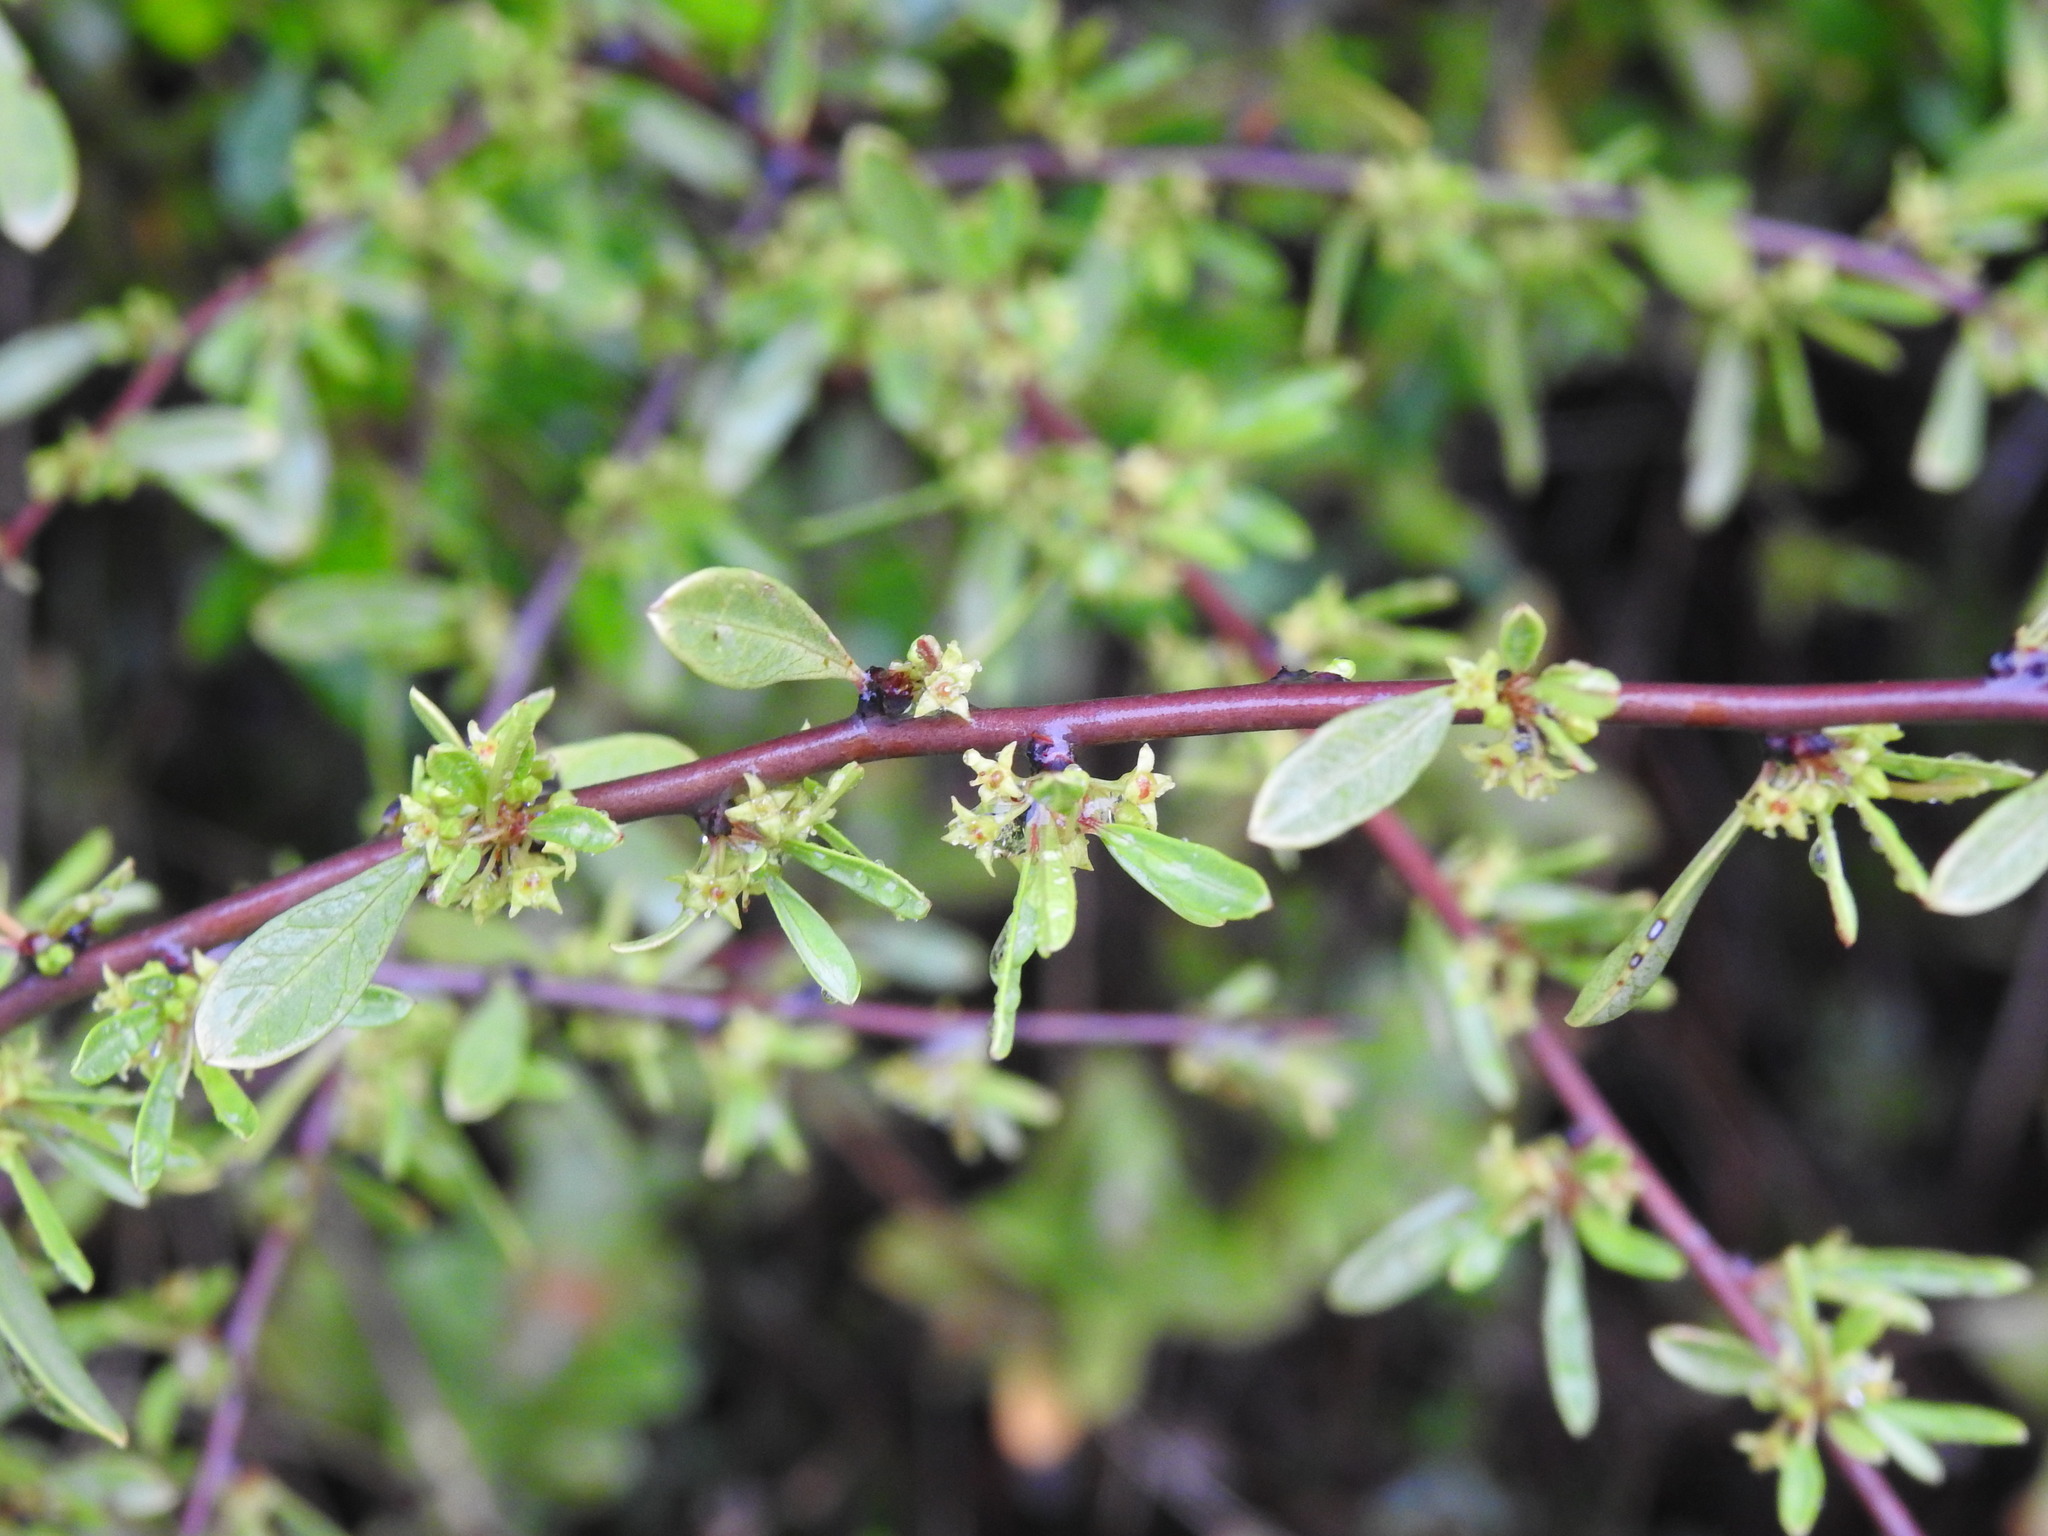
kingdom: Plantae
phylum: Tracheophyta
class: Magnoliopsida
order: Rosales
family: Rhamnaceae
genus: Rhamnus
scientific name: Rhamnus oleoides
